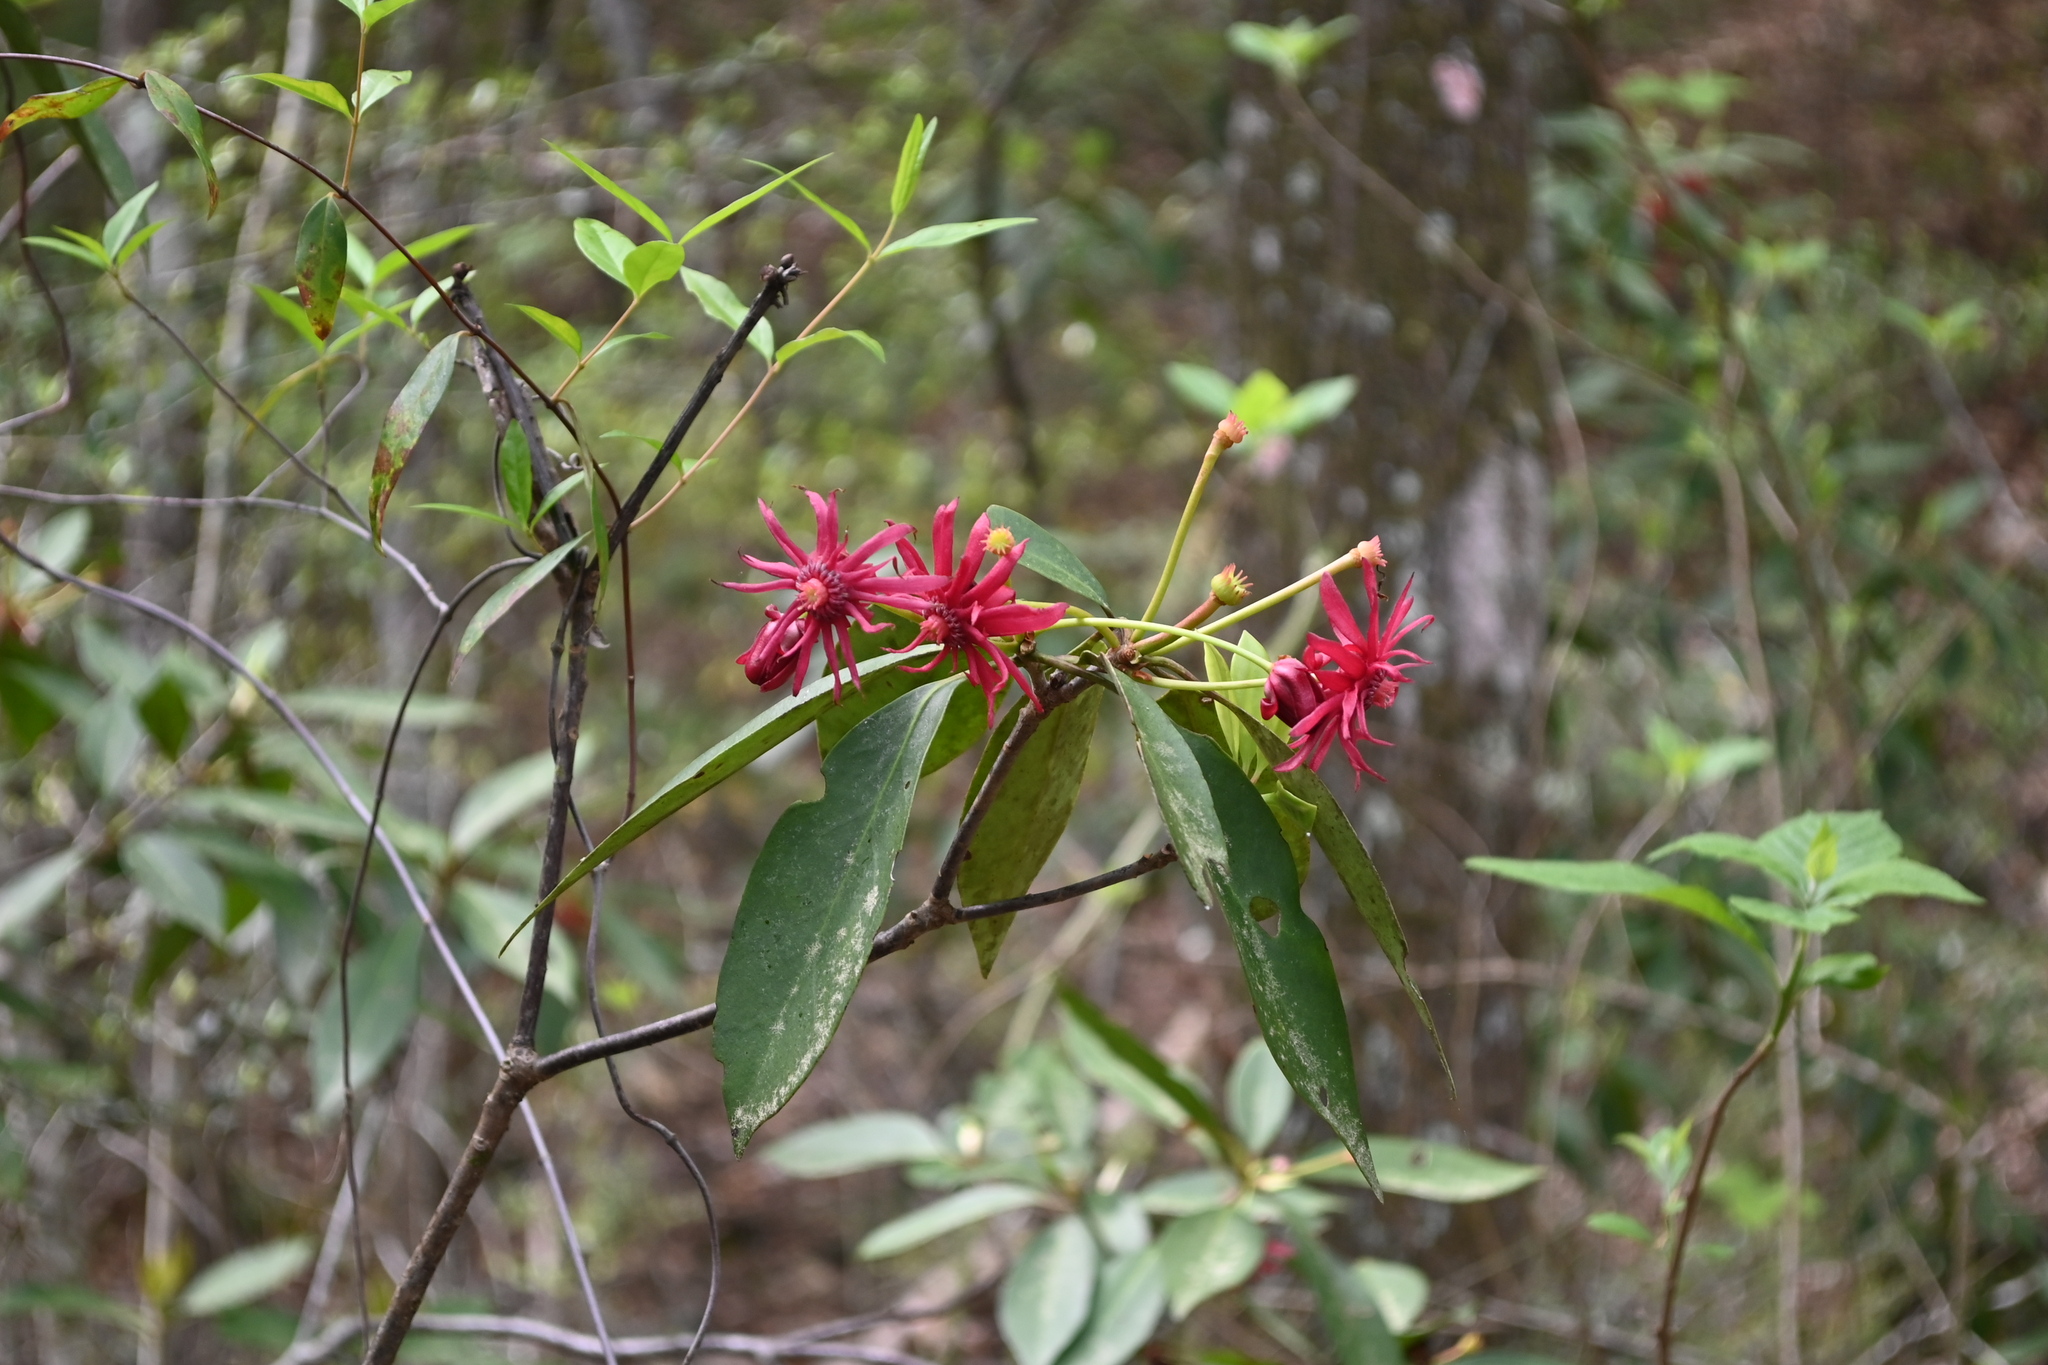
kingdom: Plantae
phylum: Tracheophyta
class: Magnoliopsida
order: Austrobaileyales
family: Schisandraceae
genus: Illicium
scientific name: Illicium floridanum
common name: Florida anisetree
